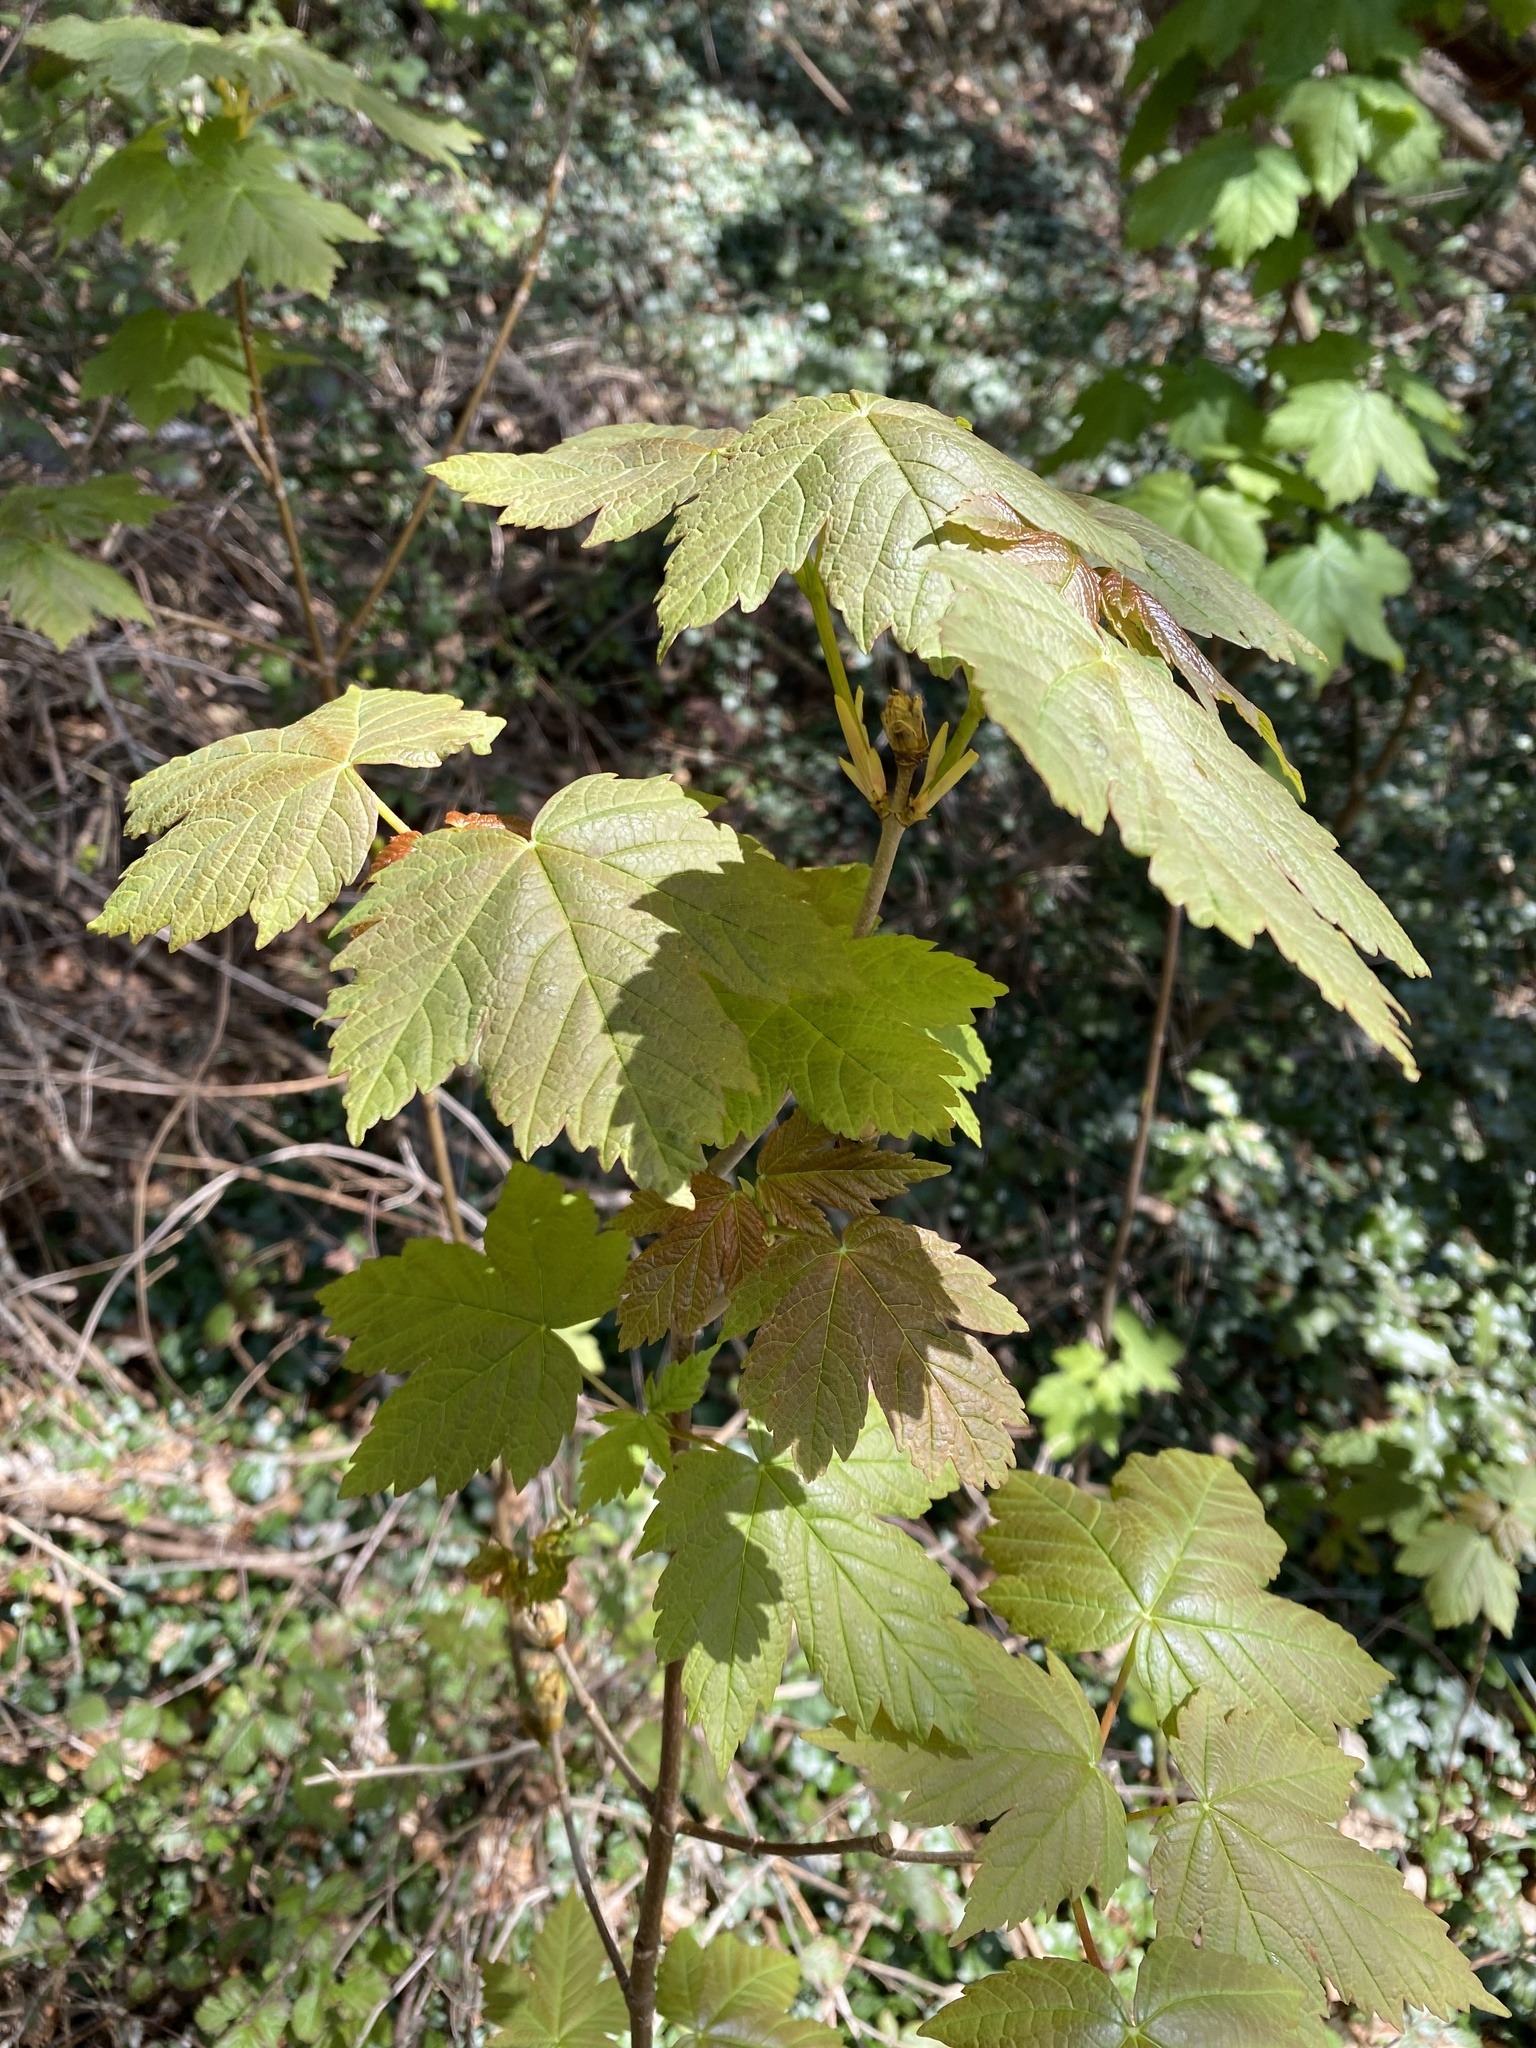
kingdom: Plantae
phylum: Tracheophyta
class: Magnoliopsida
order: Sapindales
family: Sapindaceae
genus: Acer
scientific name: Acer pseudoplatanus
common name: Sycamore
